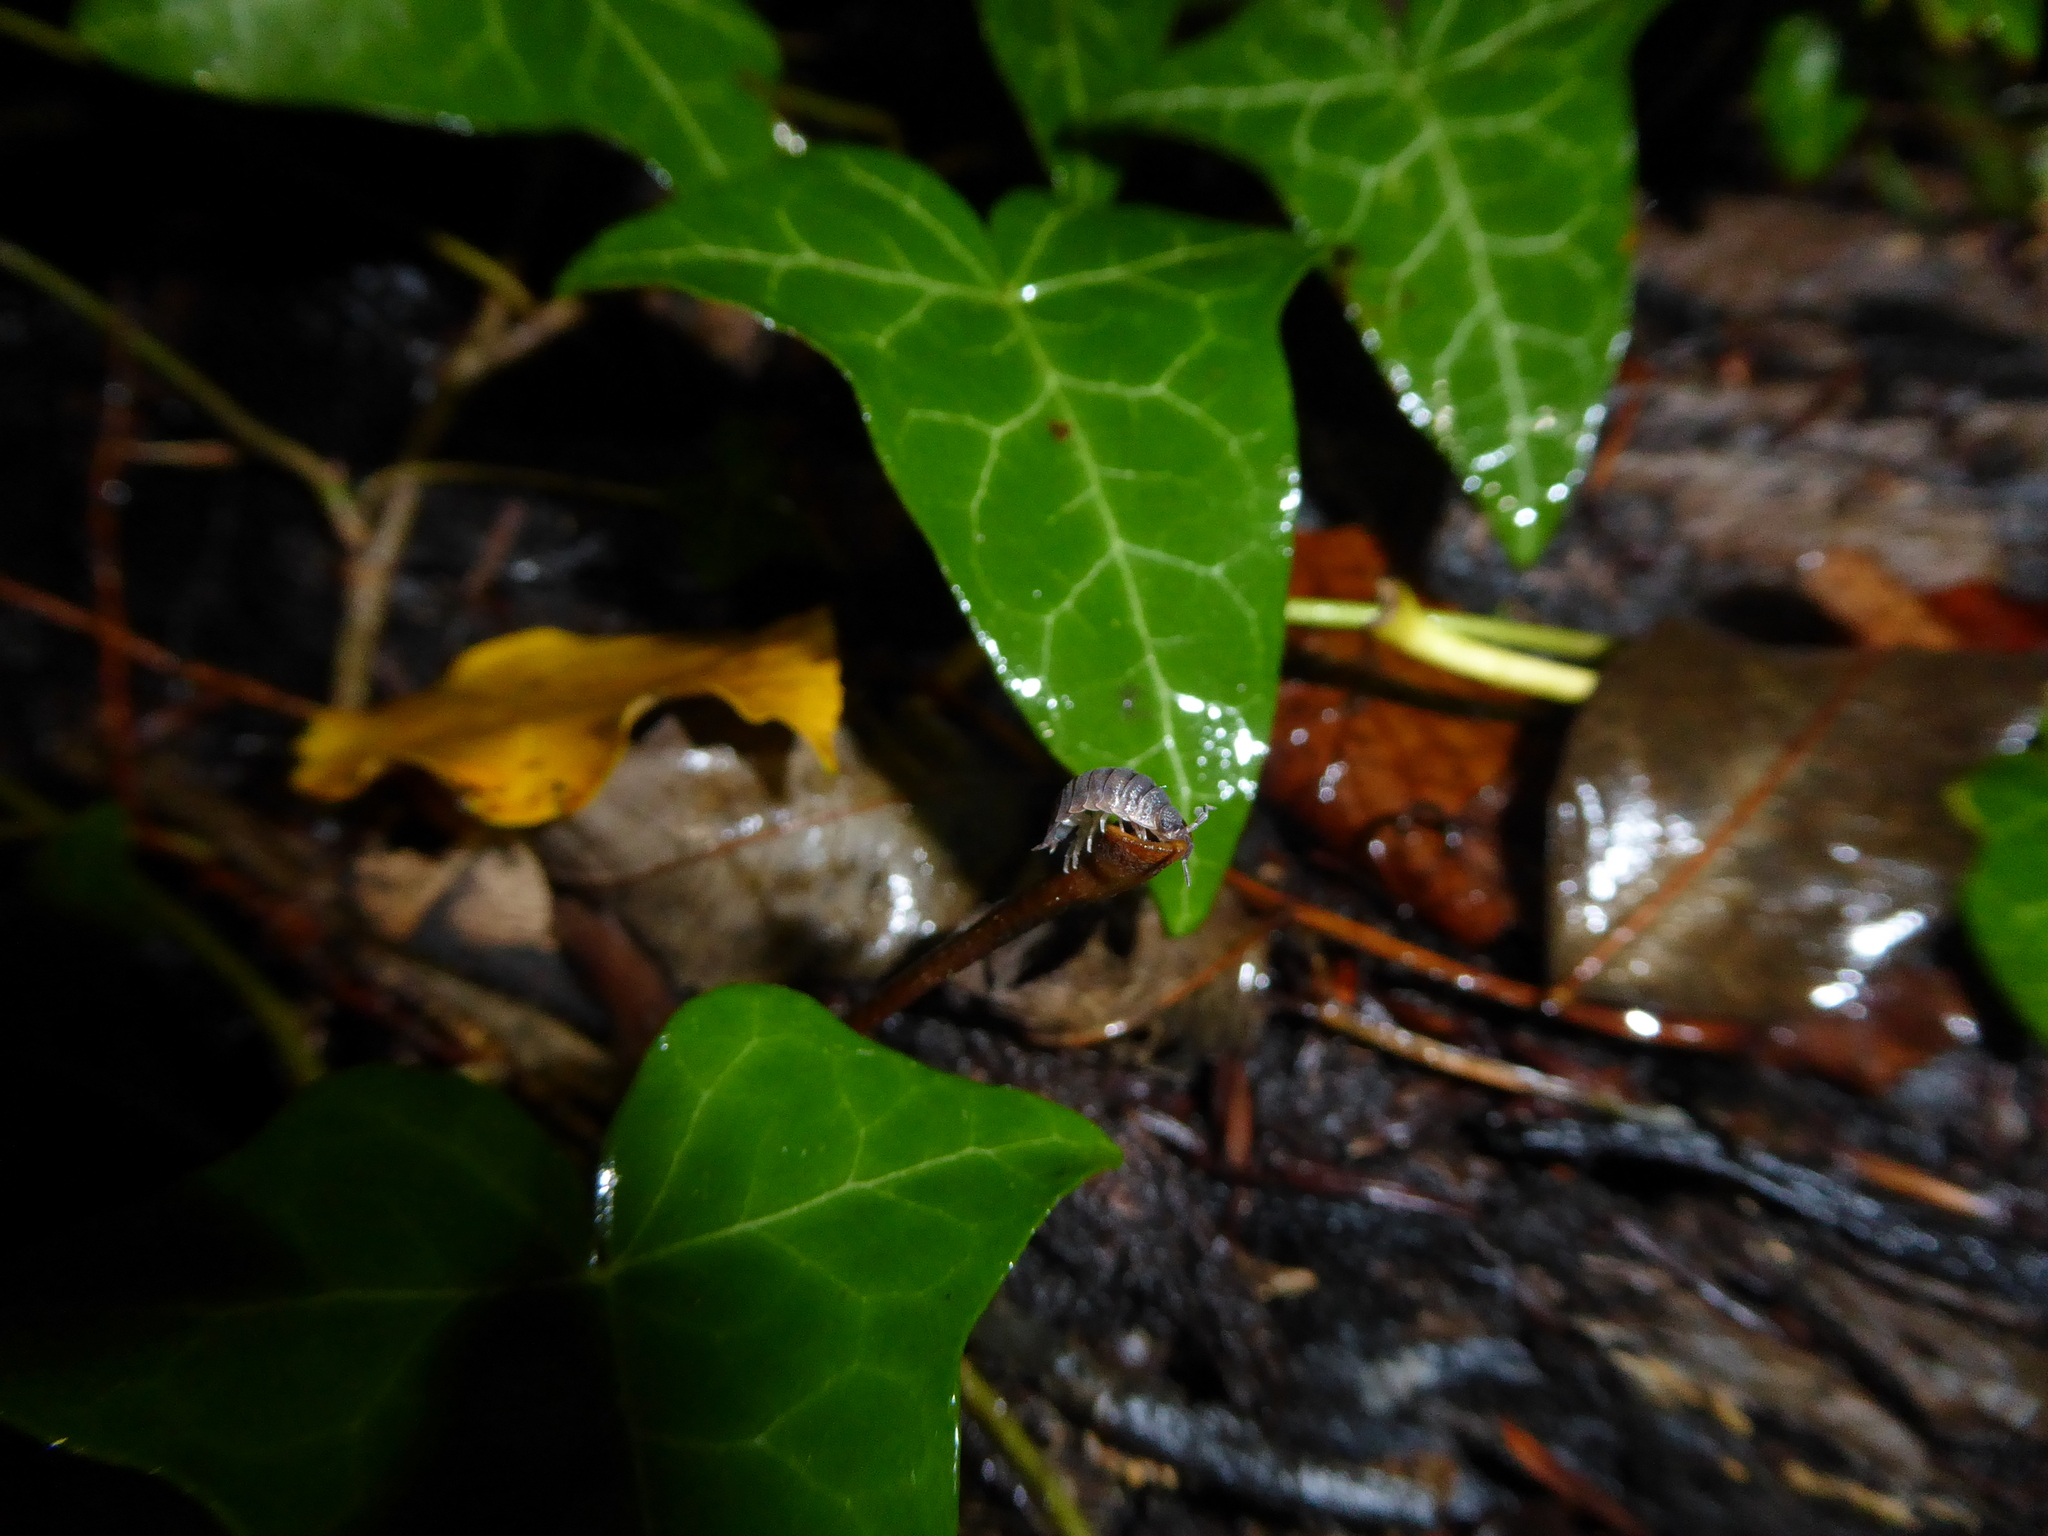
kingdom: Animalia
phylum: Arthropoda
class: Malacostraca
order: Isopoda
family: Porcellionidae
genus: Porcellio
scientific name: Porcellio scaber
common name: Common rough woodlouse
